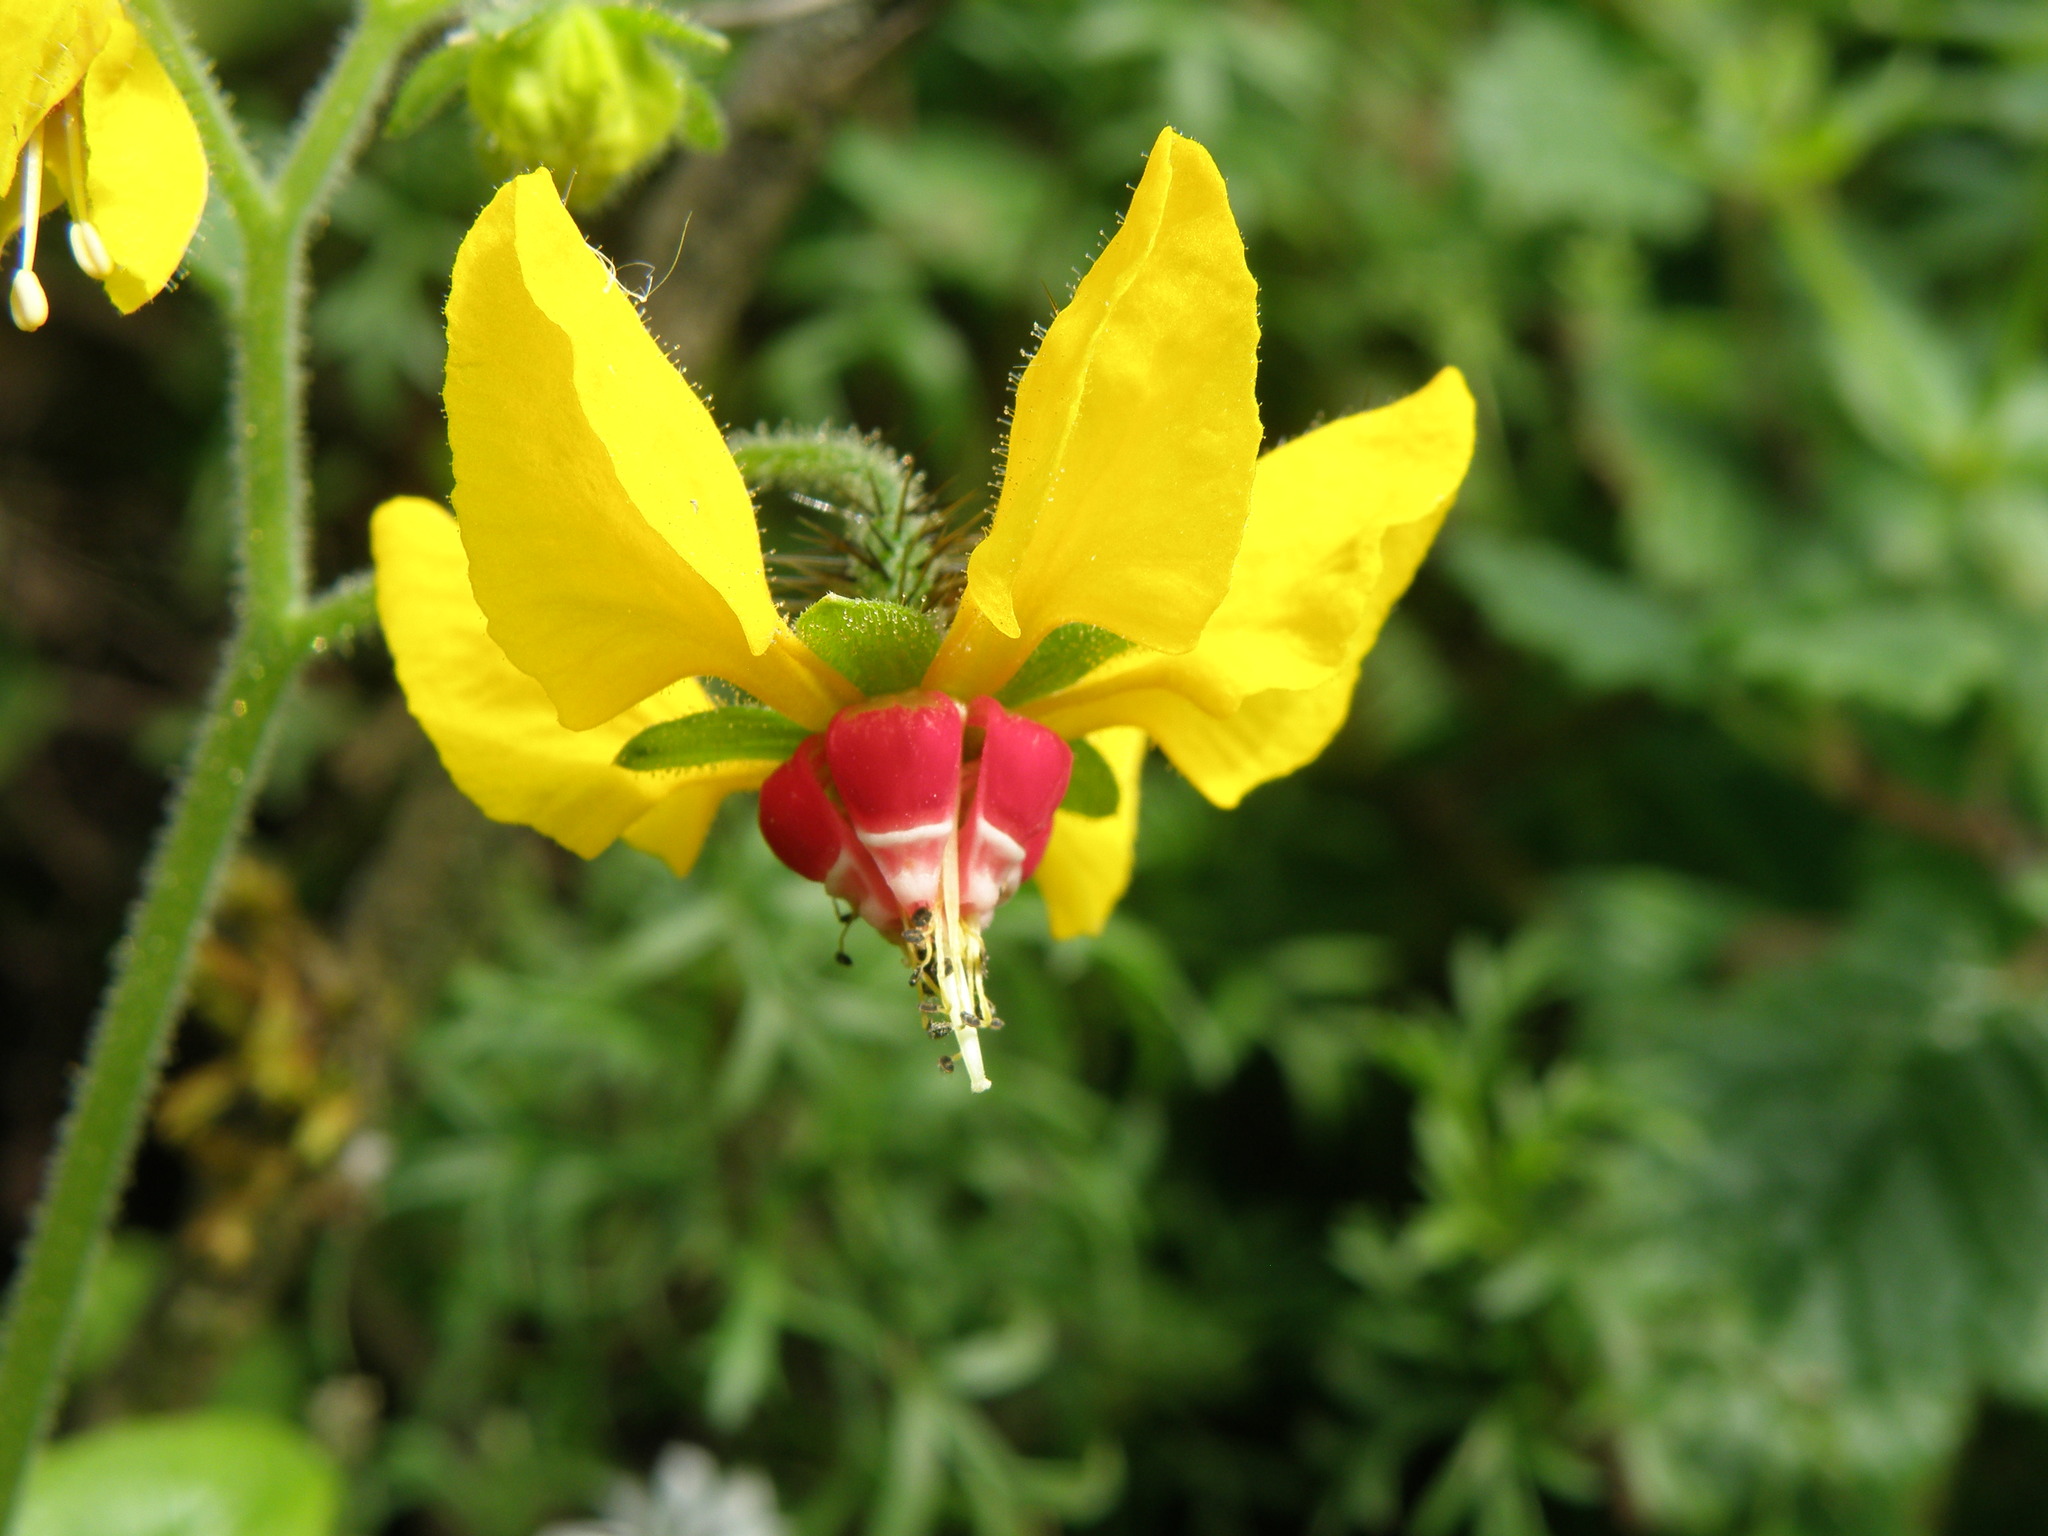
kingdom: Plantae
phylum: Tracheophyta
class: Magnoliopsida
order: Cornales
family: Loasaceae
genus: Nasa
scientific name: Nasa solaria
